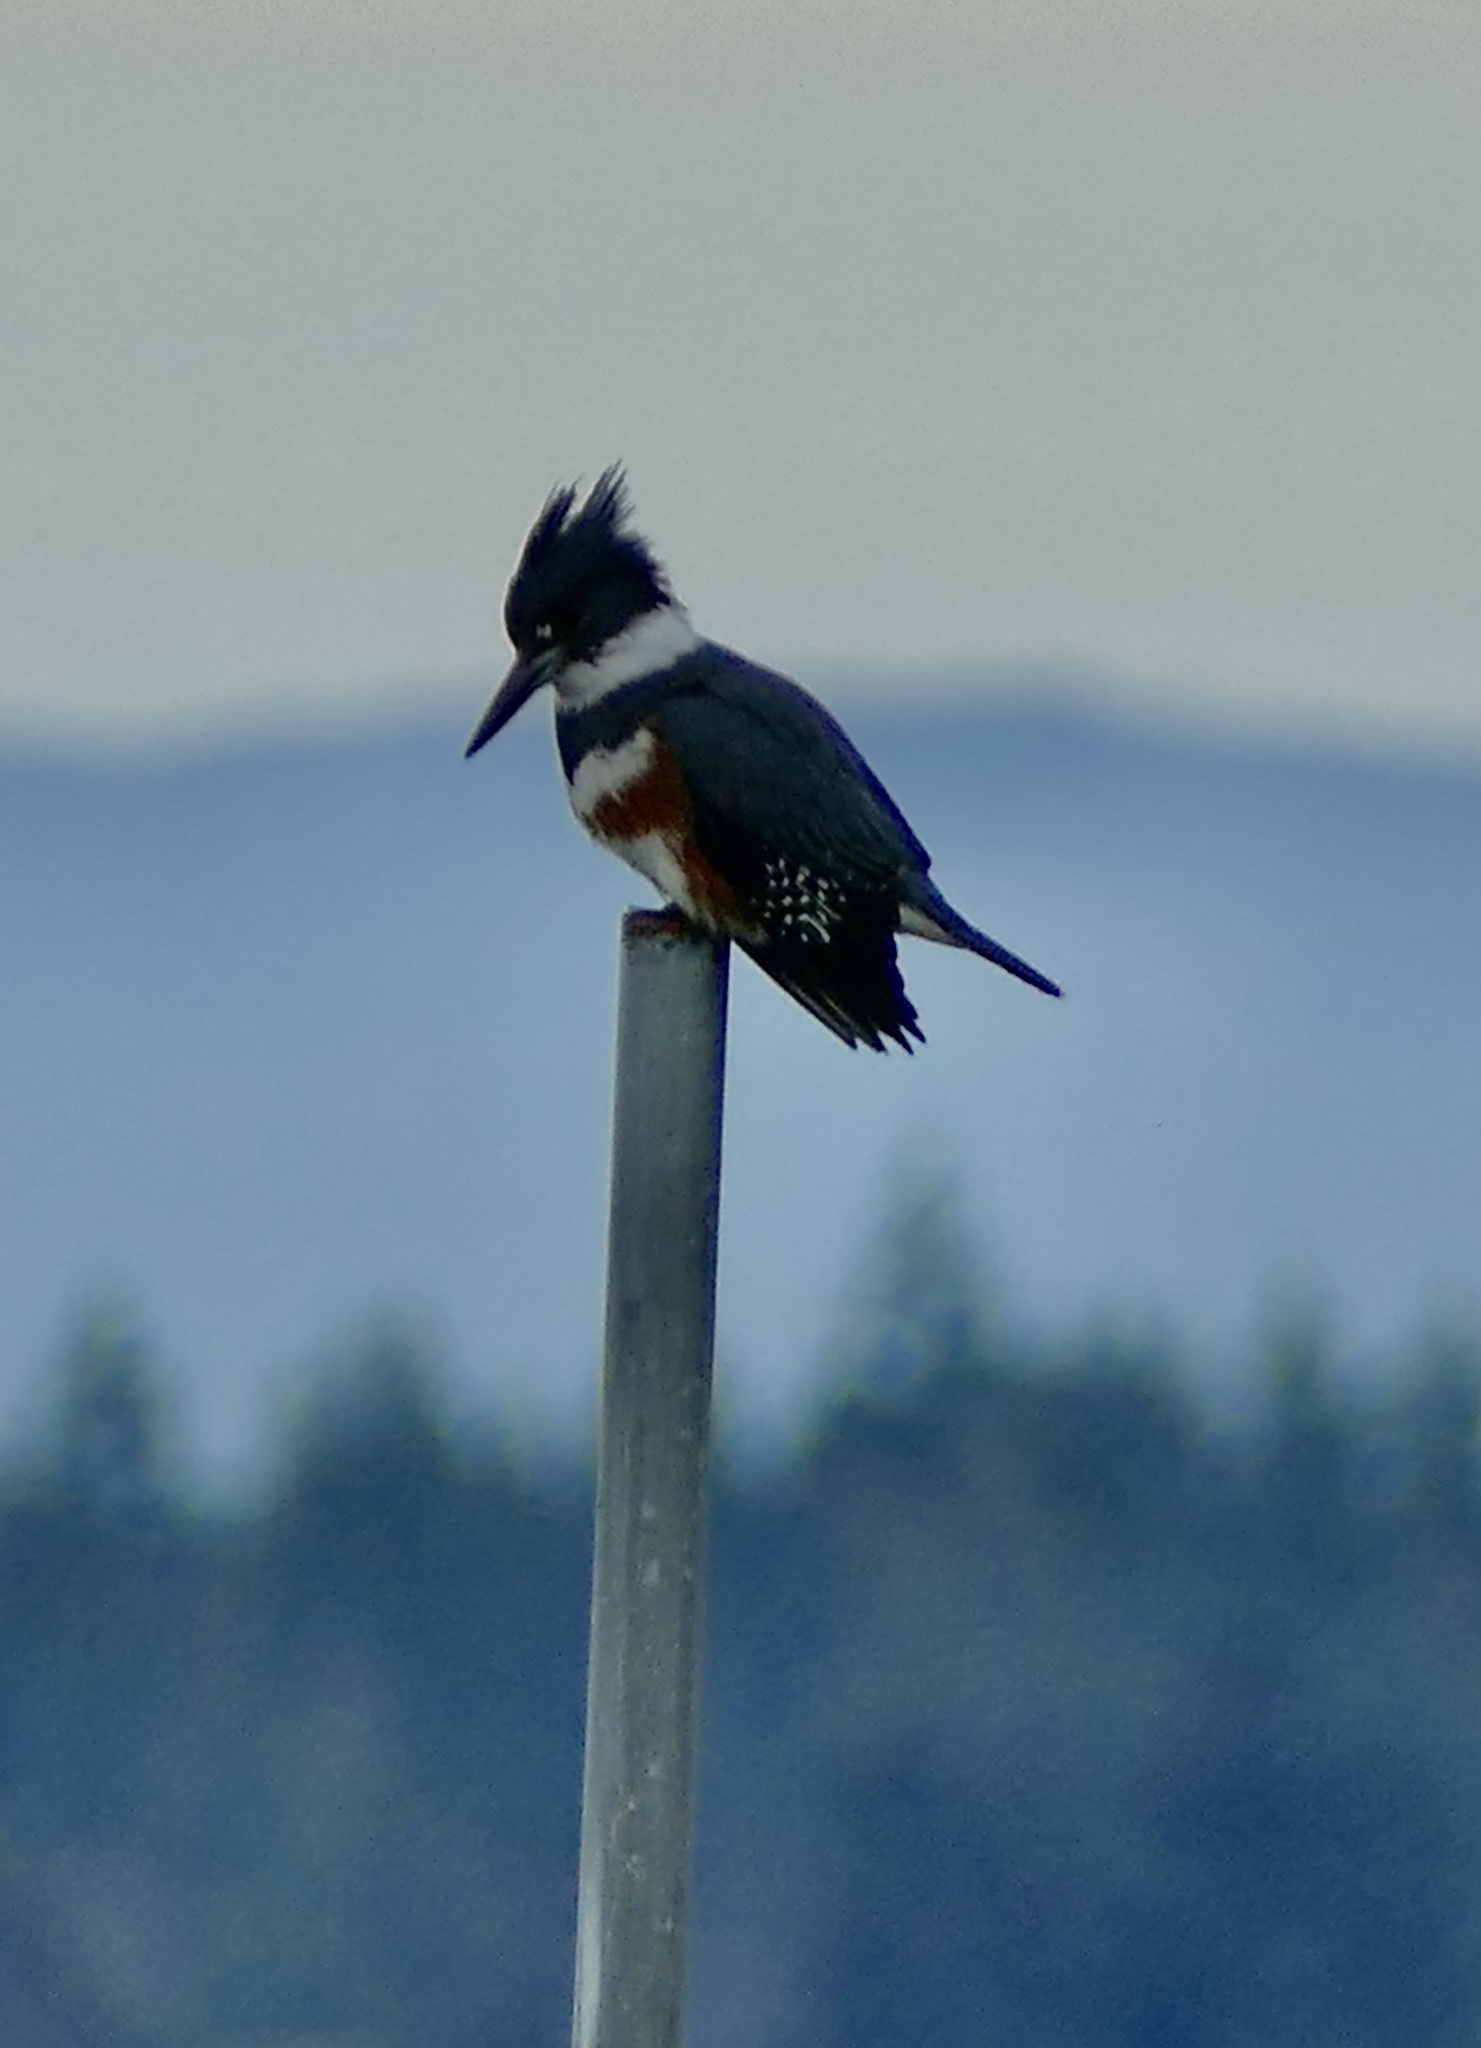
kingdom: Animalia
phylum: Chordata
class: Aves
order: Coraciiformes
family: Alcedinidae
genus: Megaceryle
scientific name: Megaceryle alcyon
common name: Belted kingfisher
